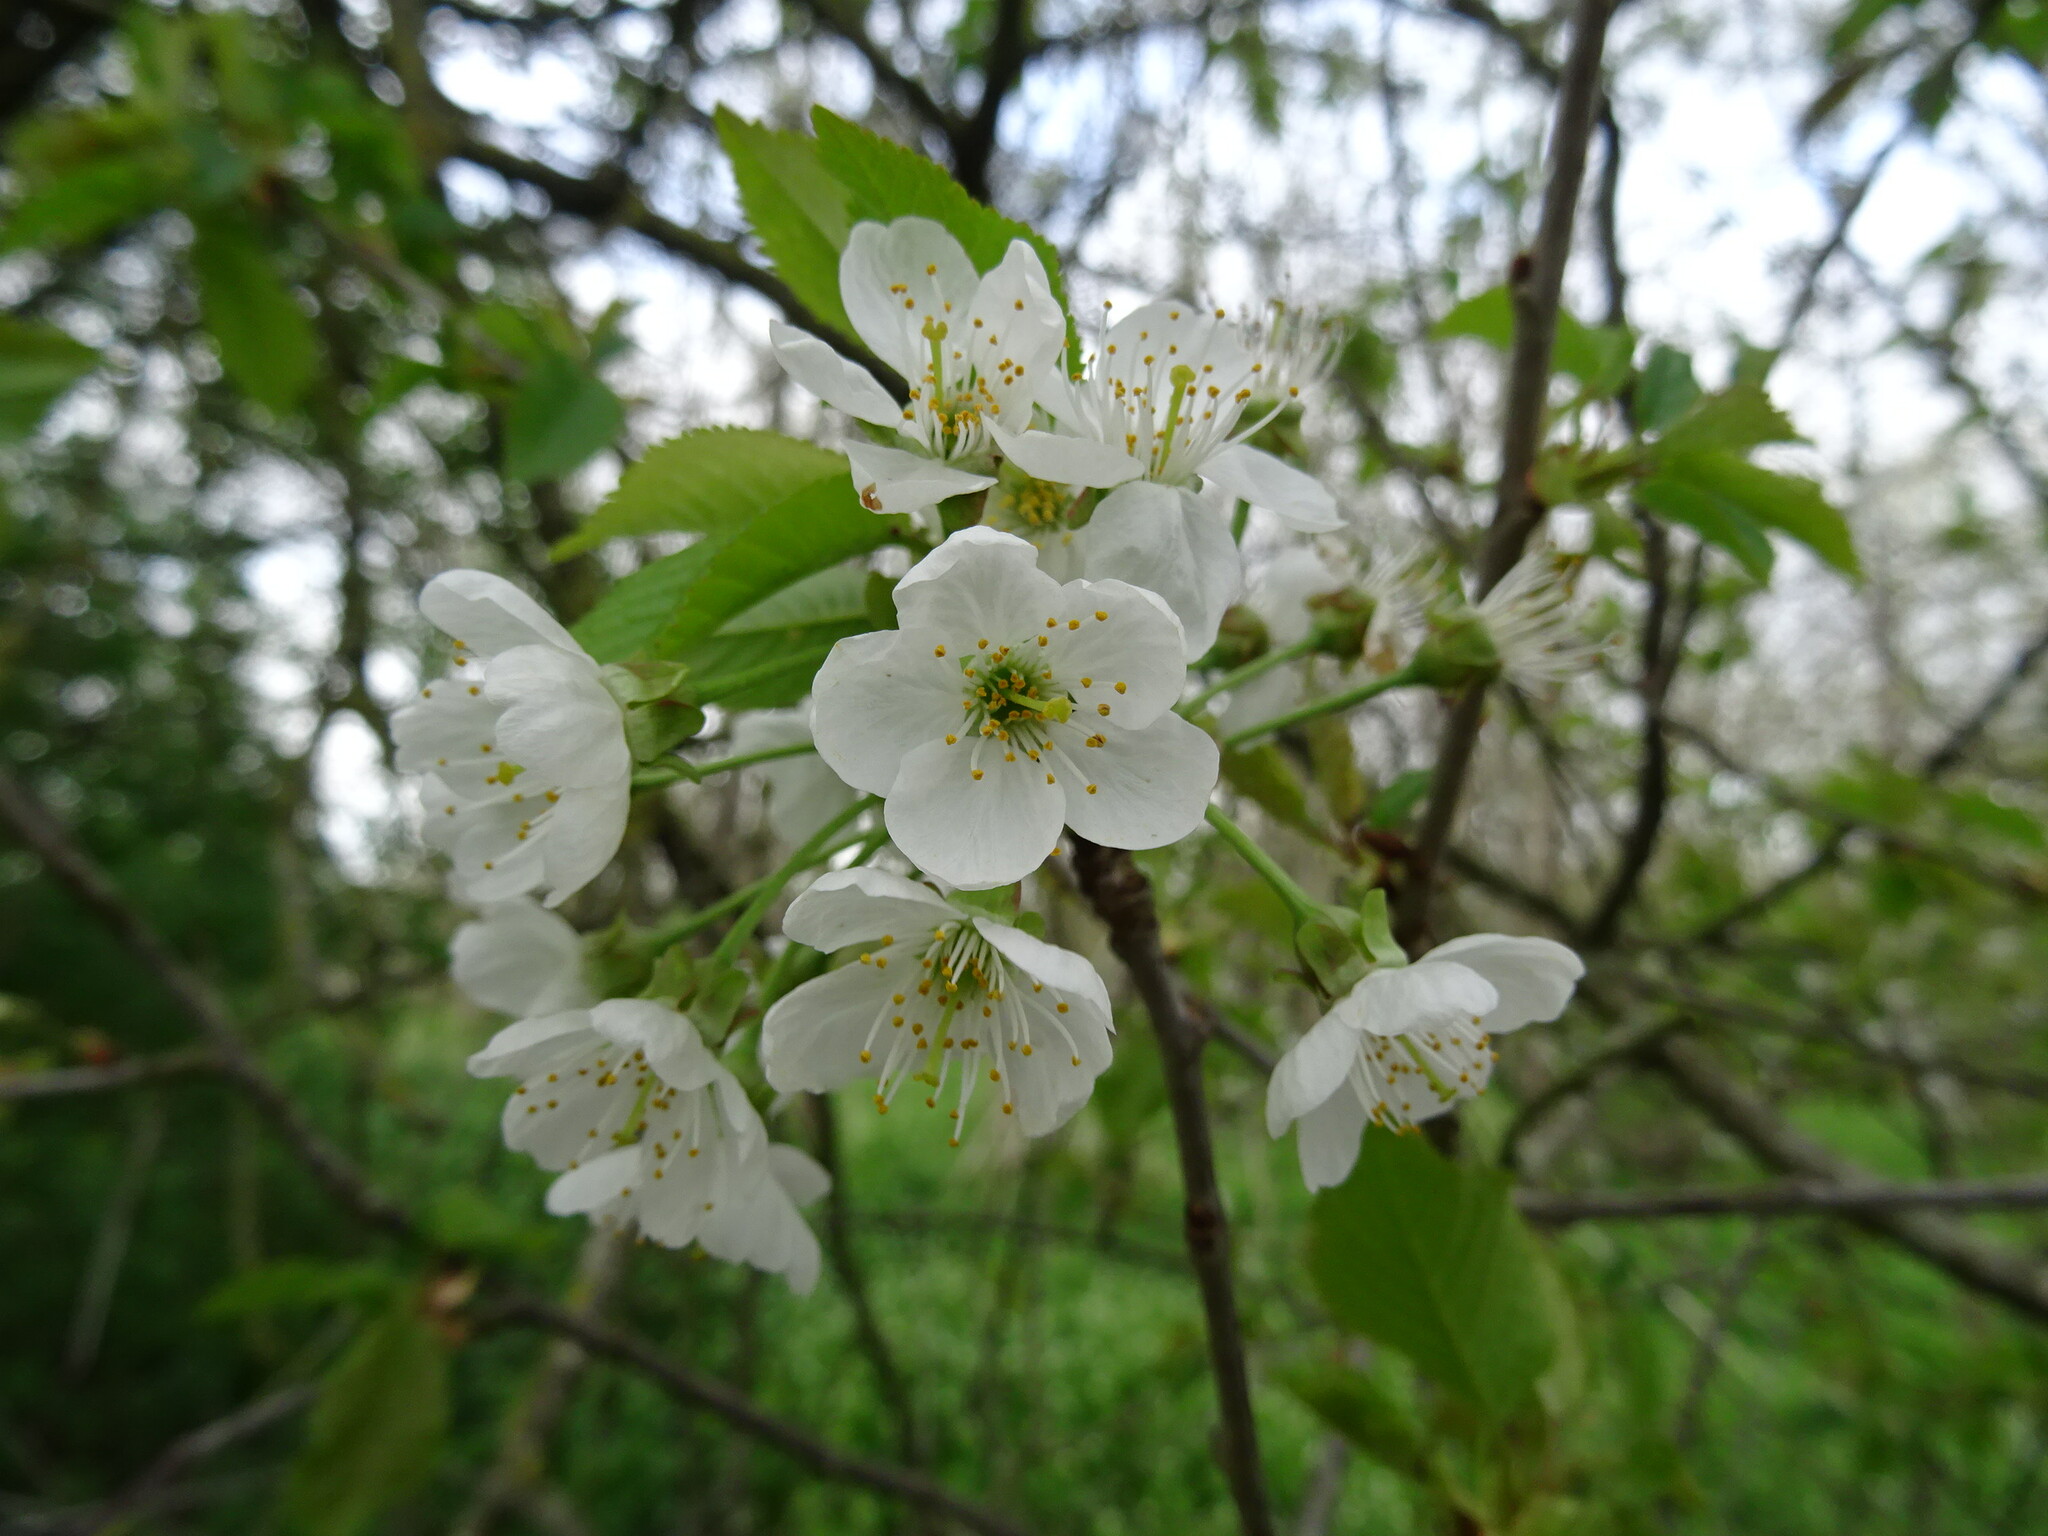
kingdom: Plantae
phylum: Tracheophyta
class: Magnoliopsida
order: Rosales
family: Rosaceae
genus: Prunus
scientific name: Prunus avium
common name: Sweet cherry
